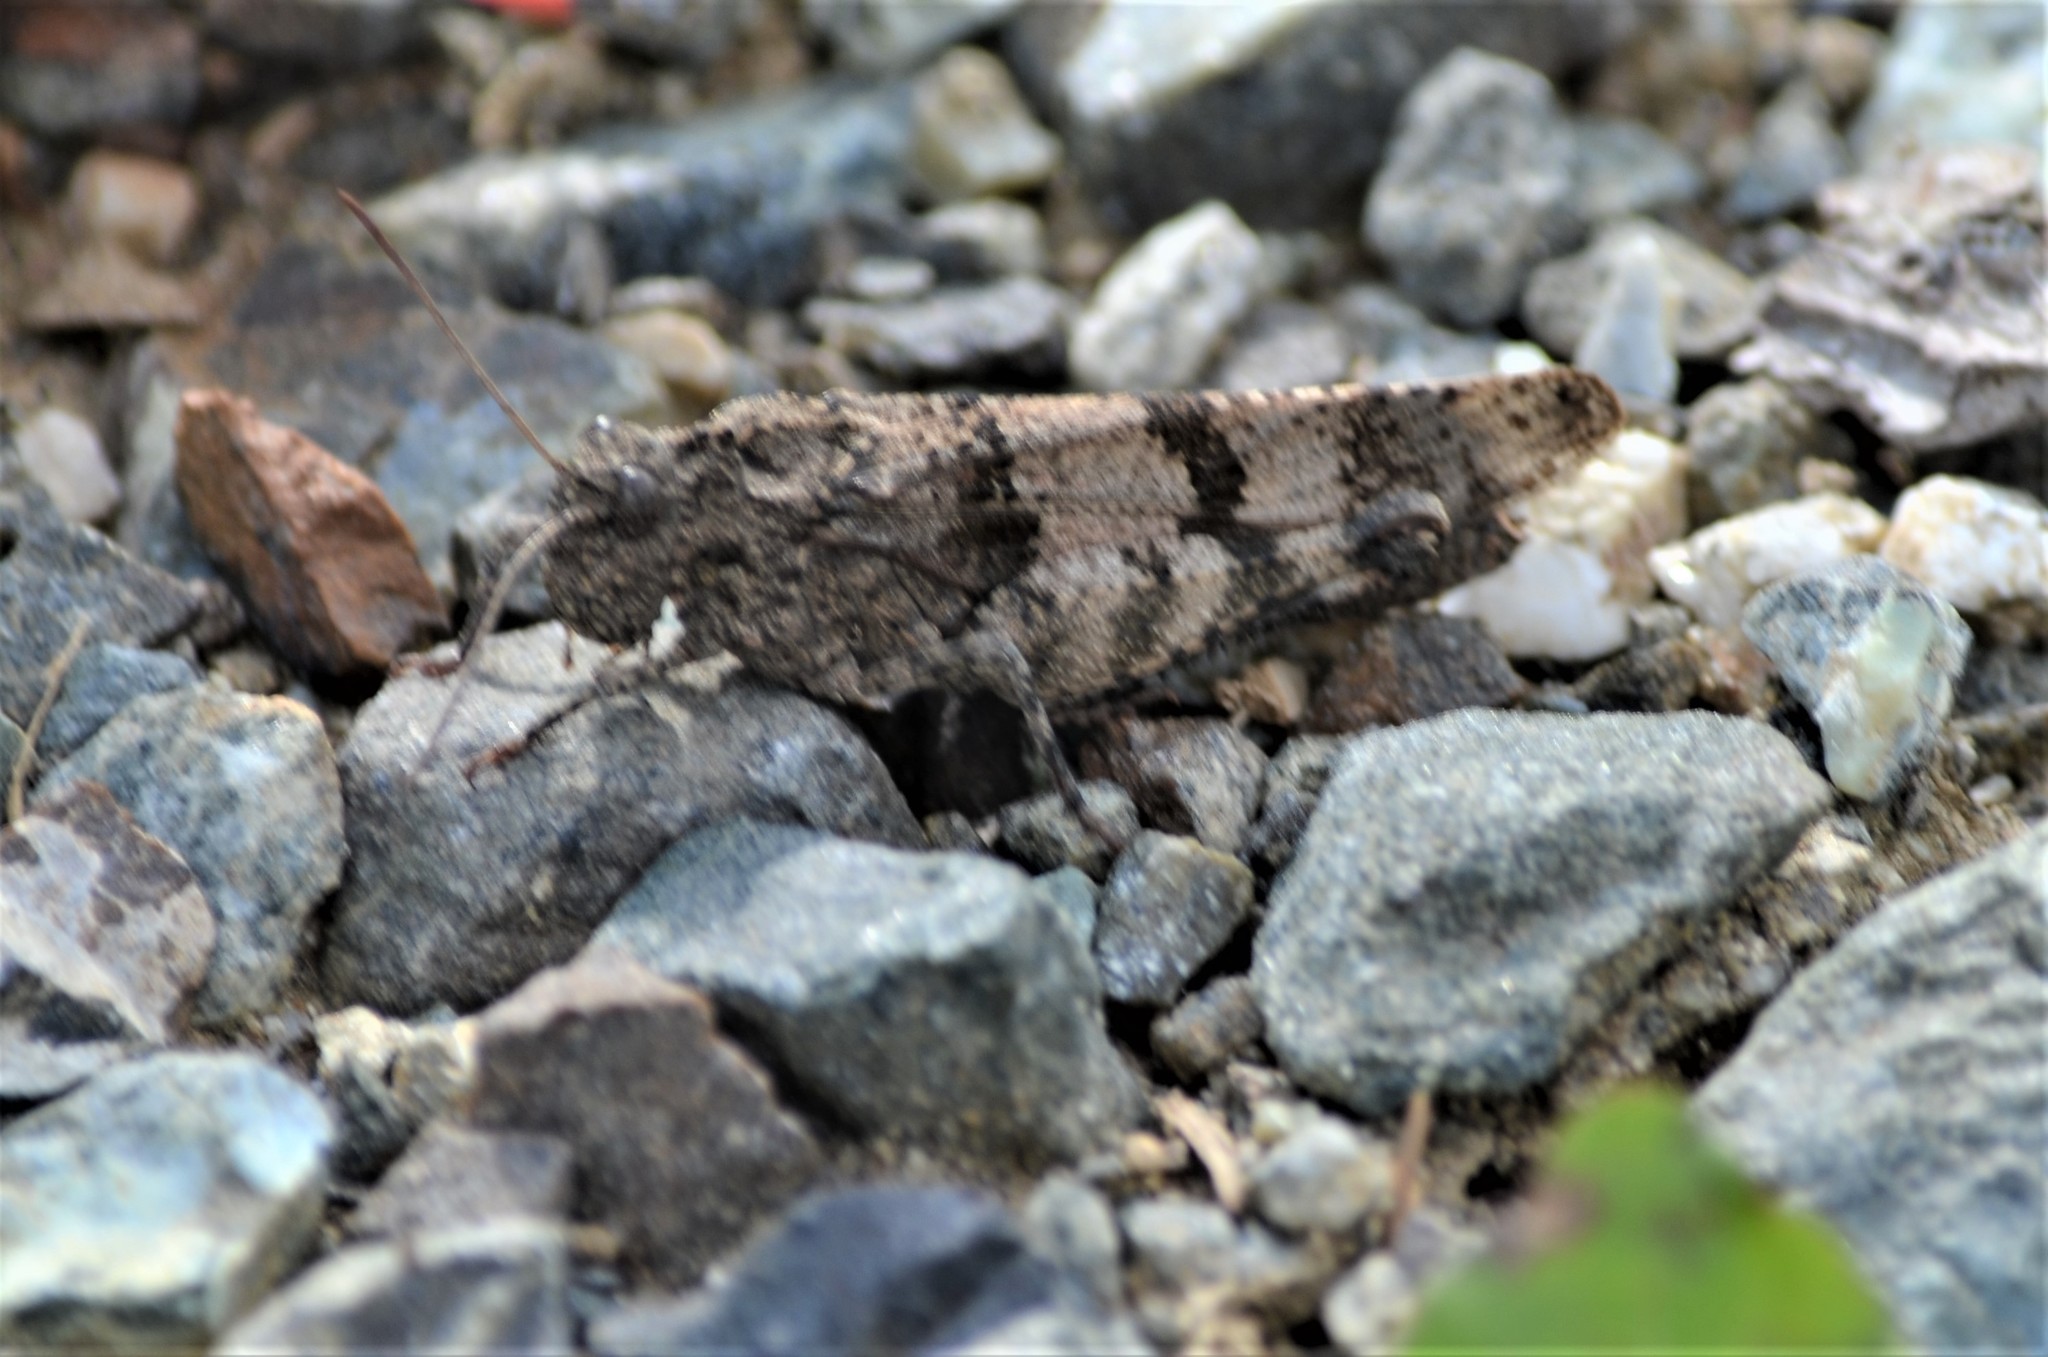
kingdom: Animalia
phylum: Arthropoda
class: Insecta
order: Orthoptera
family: Acrididae
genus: Oedipoda
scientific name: Oedipoda caerulescens
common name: Blue-winged grasshopper
